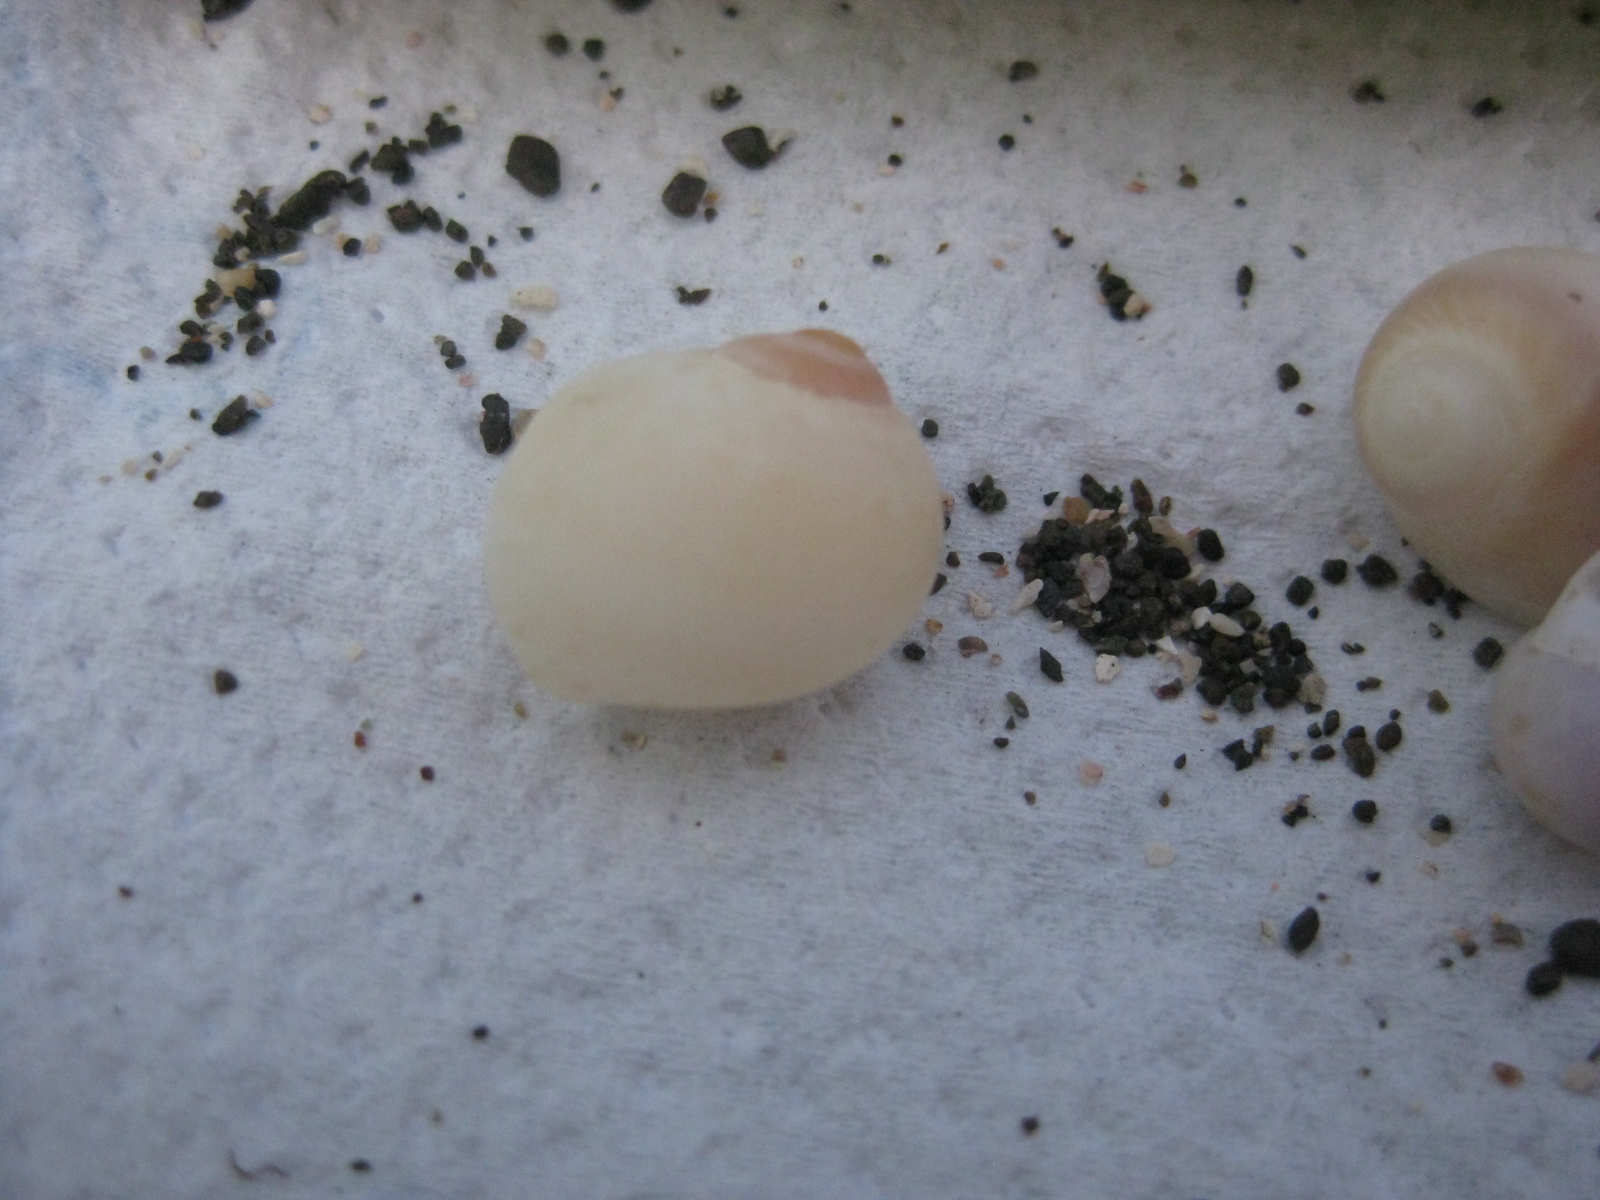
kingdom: Animalia
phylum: Mollusca
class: Gastropoda
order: Littorinimorpha
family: Naticidae
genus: Tanea
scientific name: Tanea zelandica
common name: New zealand moonsnail
